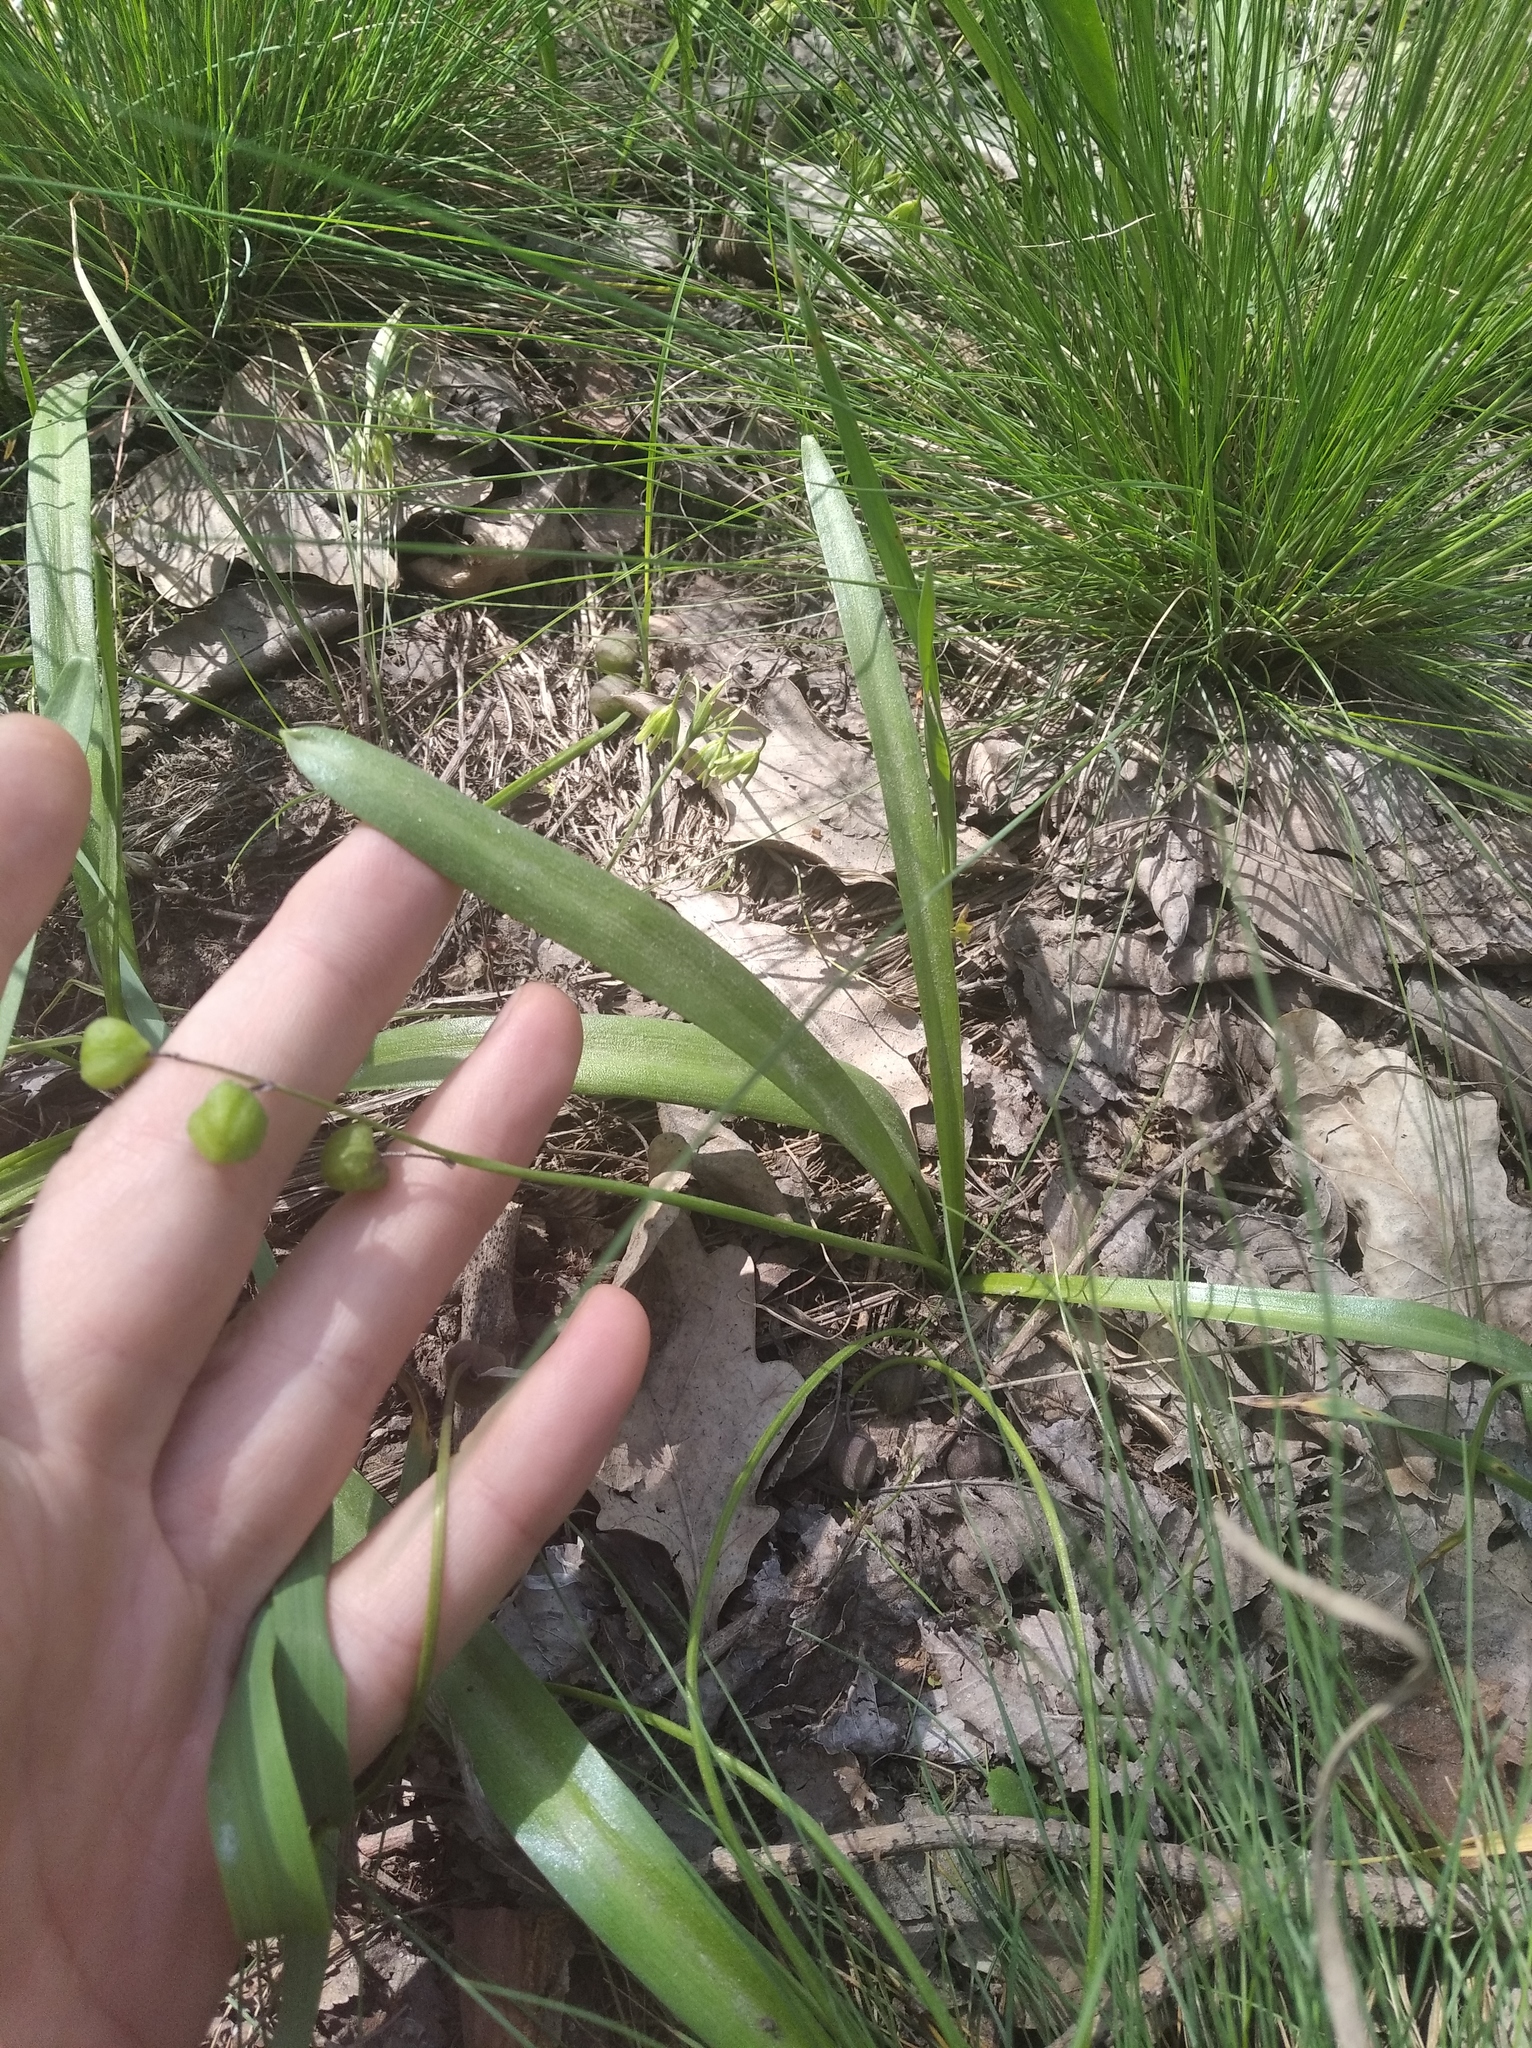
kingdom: Plantae
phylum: Tracheophyta
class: Liliopsida
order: Asparagales
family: Asparagaceae
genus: Scilla
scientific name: Scilla siberica
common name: Siberian squill
